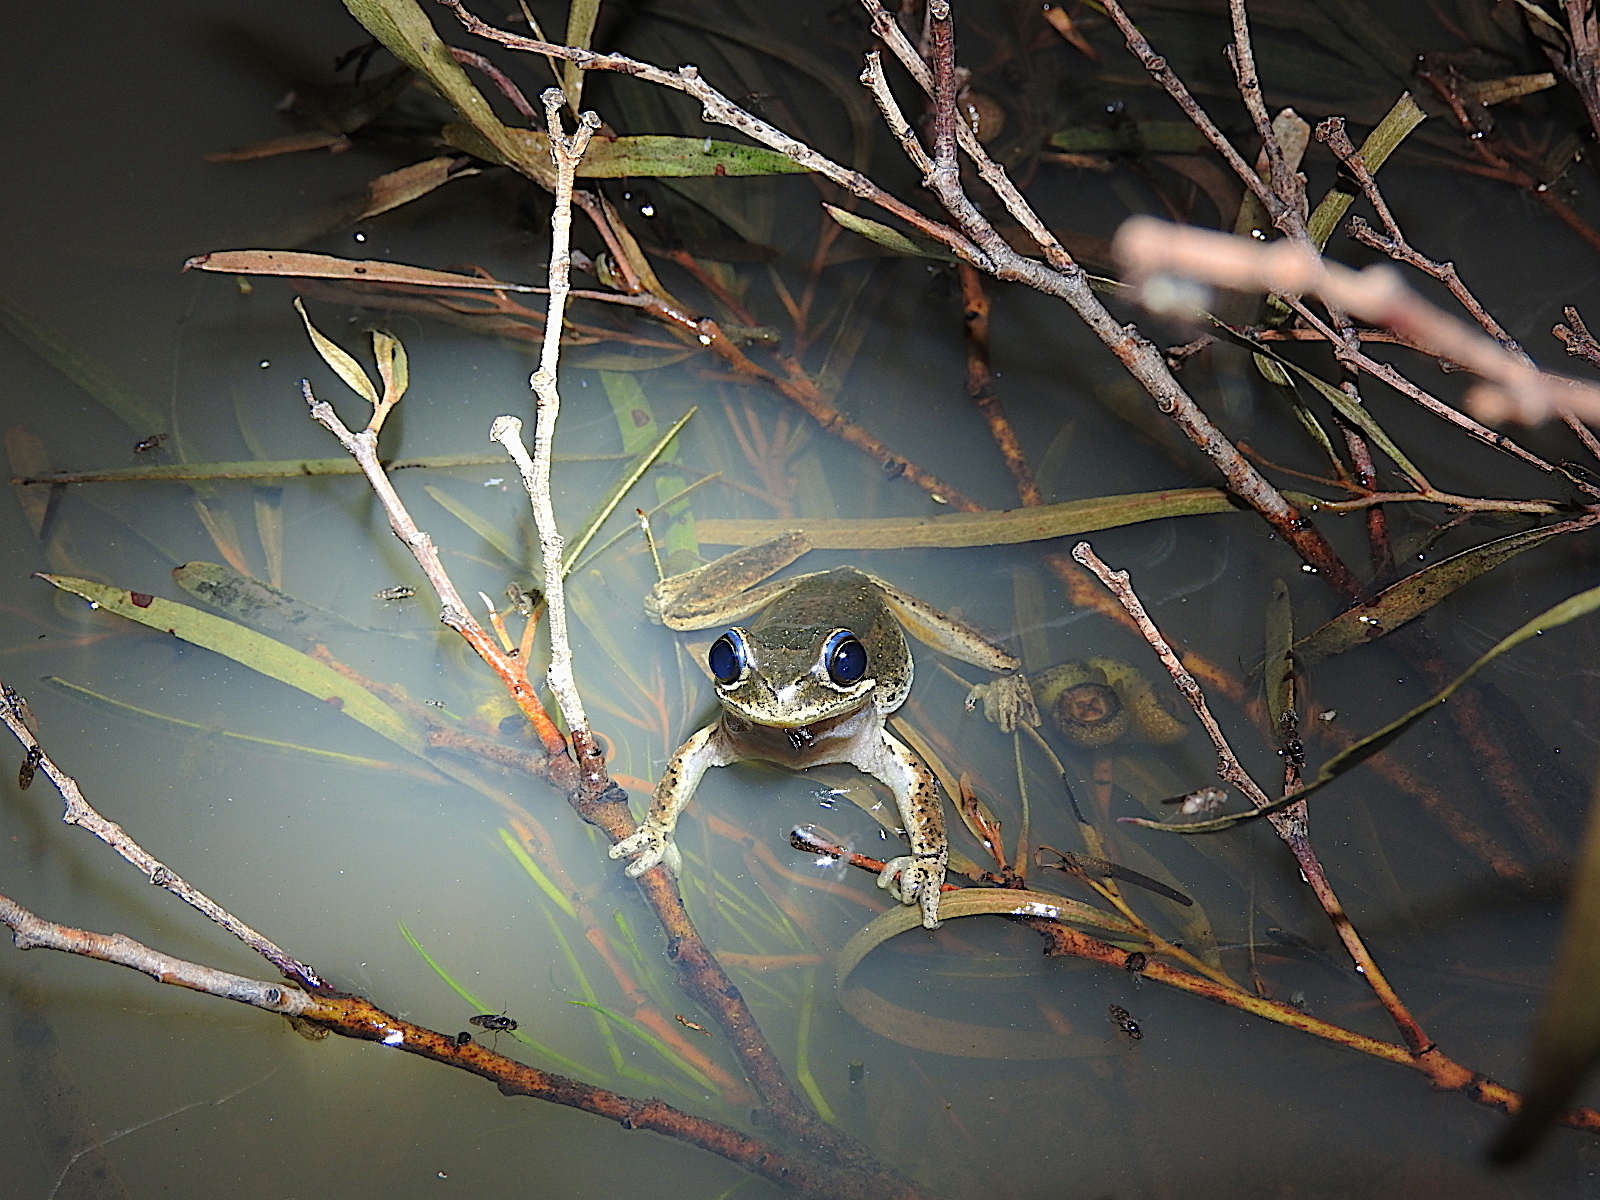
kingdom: Animalia
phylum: Chordata
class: Amphibia
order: Anura
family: Pelodryadidae
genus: Litoria
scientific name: Litoria ewingii
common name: Southern brown tree frog
